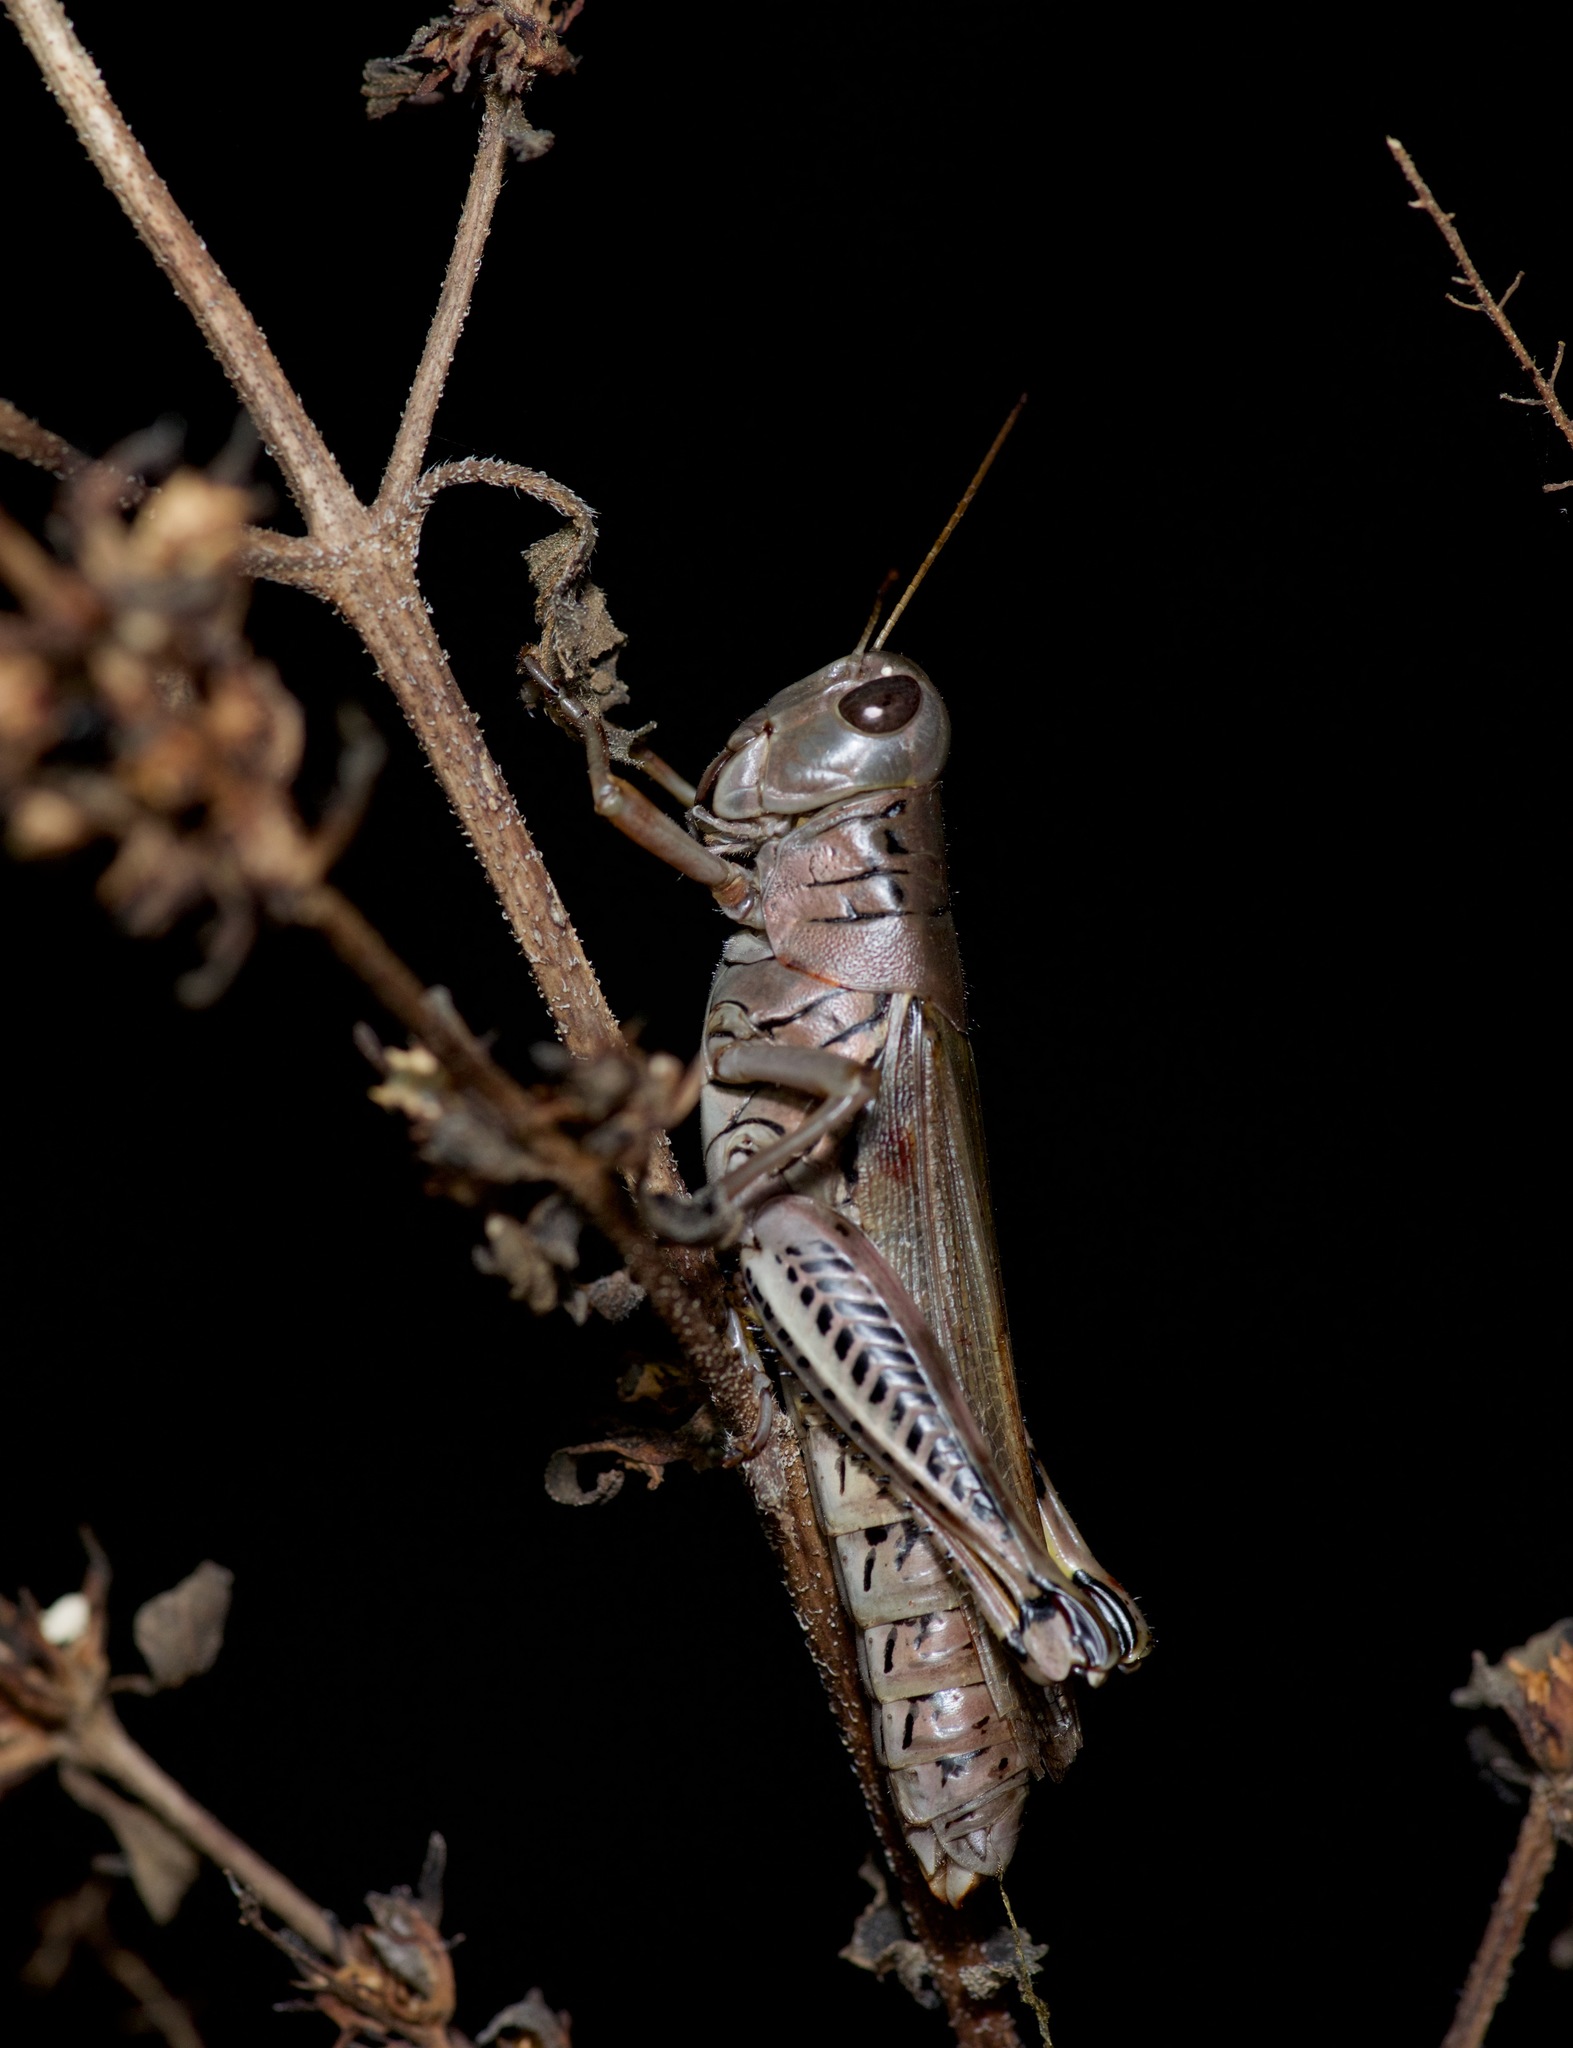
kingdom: Animalia
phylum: Arthropoda
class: Insecta
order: Orthoptera
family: Acrididae
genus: Melanoplus
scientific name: Melanoplus differentialis
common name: Differential grasshopper
